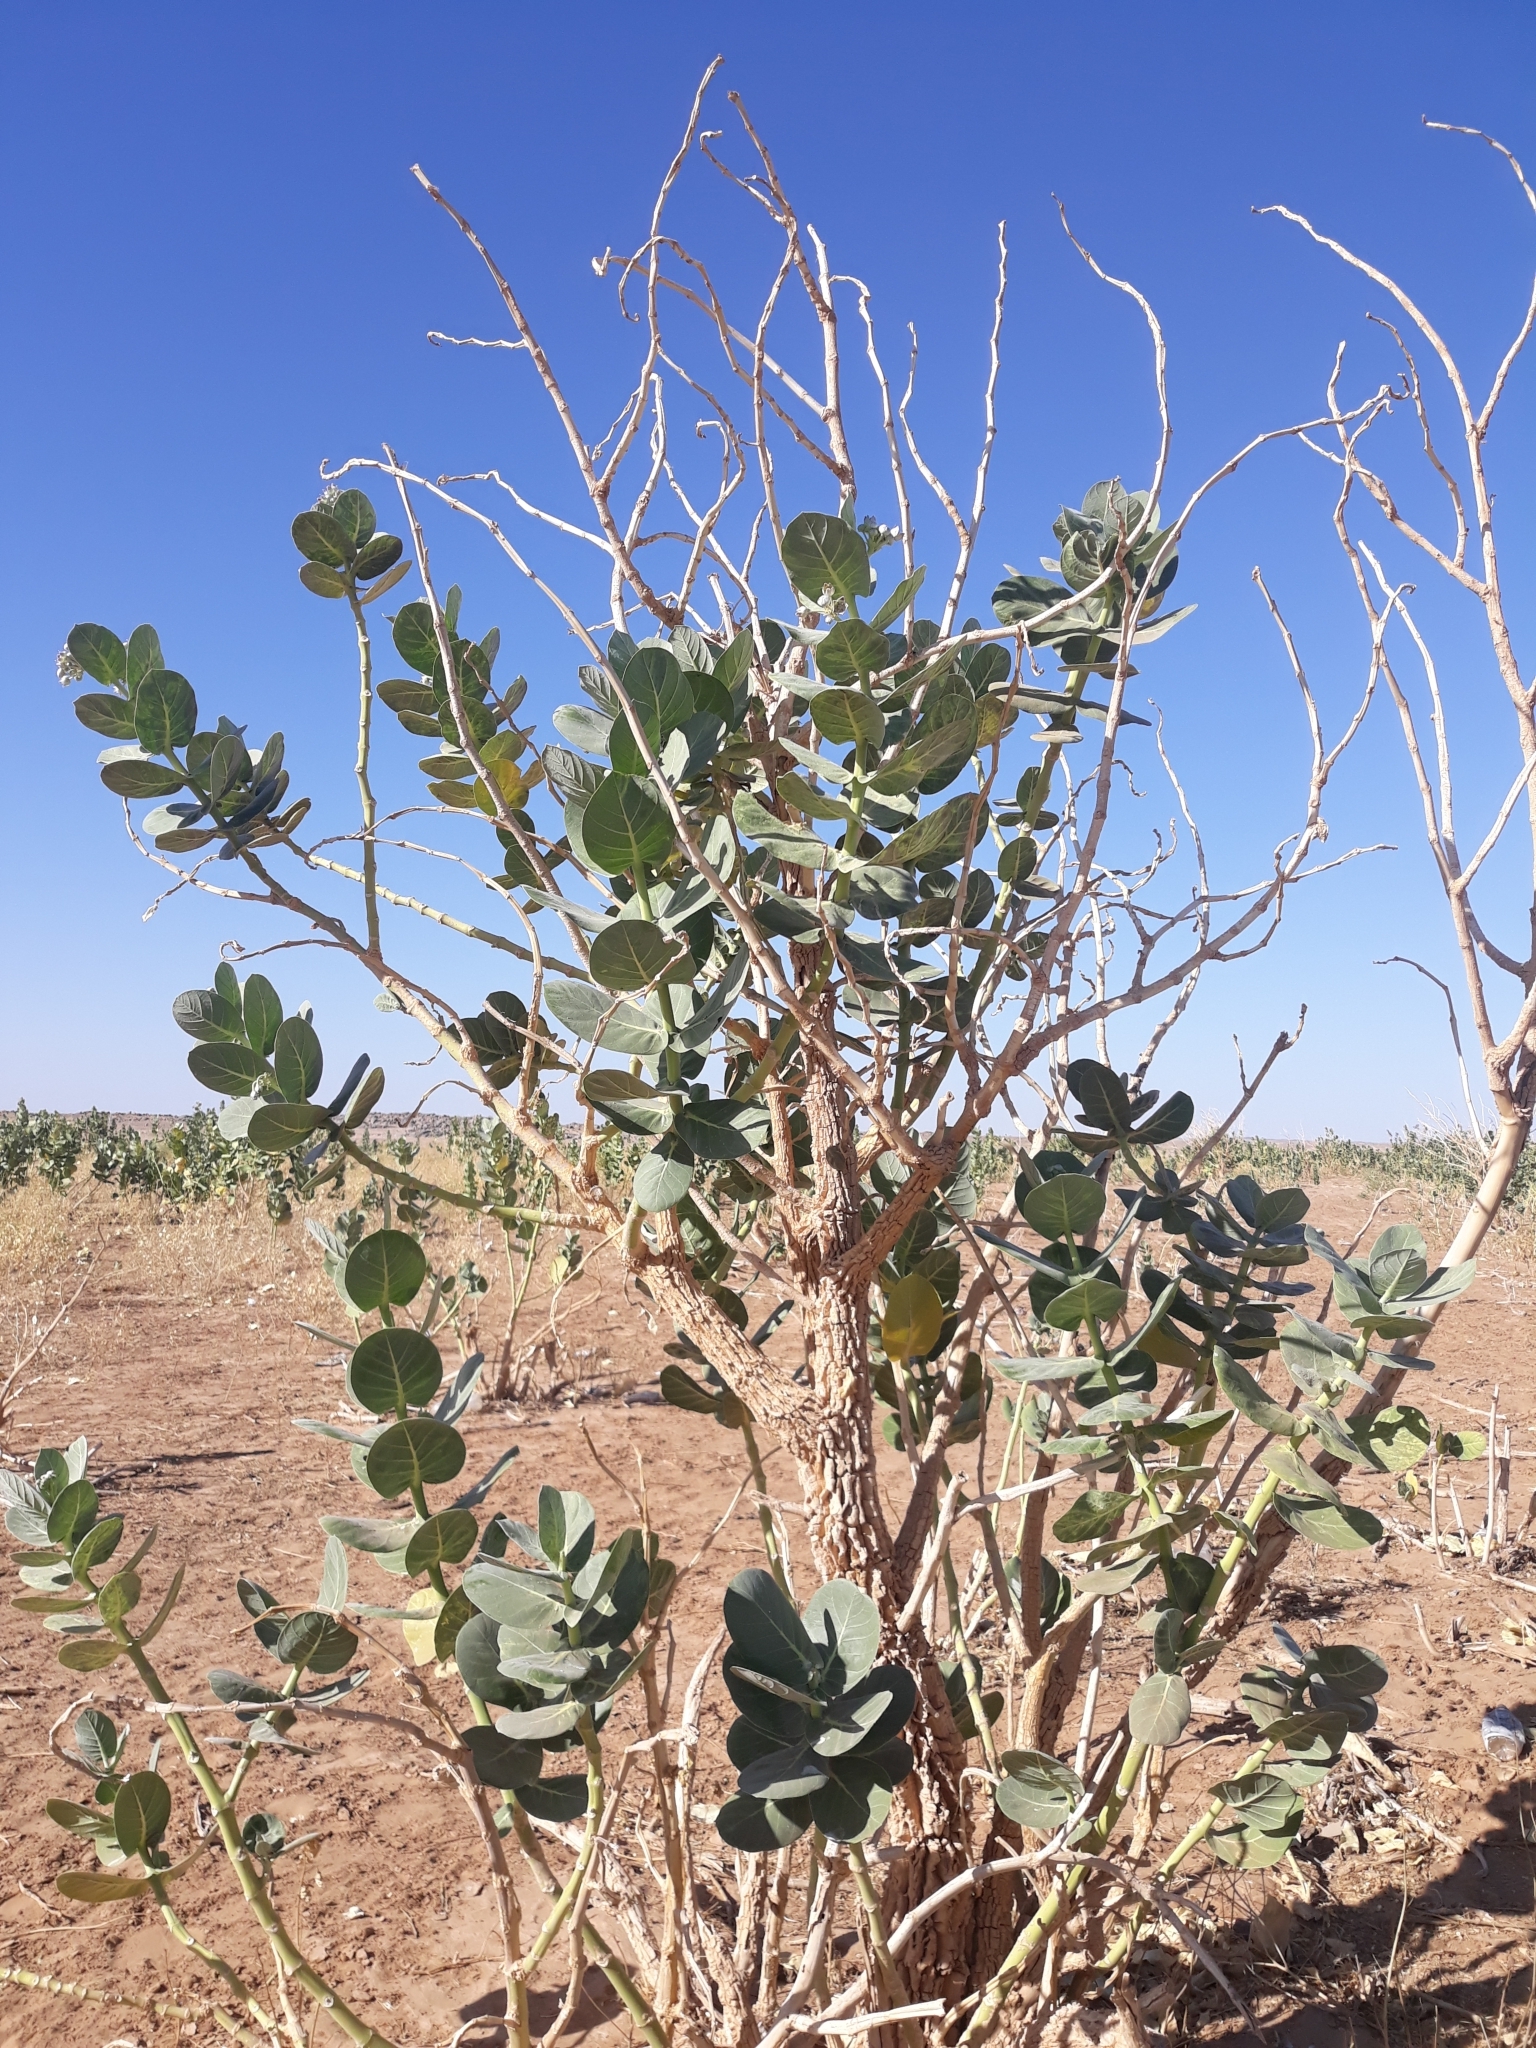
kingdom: Plantae
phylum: Tracheophyta
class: Magnoliopsida
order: Gentianales
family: Apocynaceae
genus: Calotropis
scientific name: Calotropis procera
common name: Roostertree
